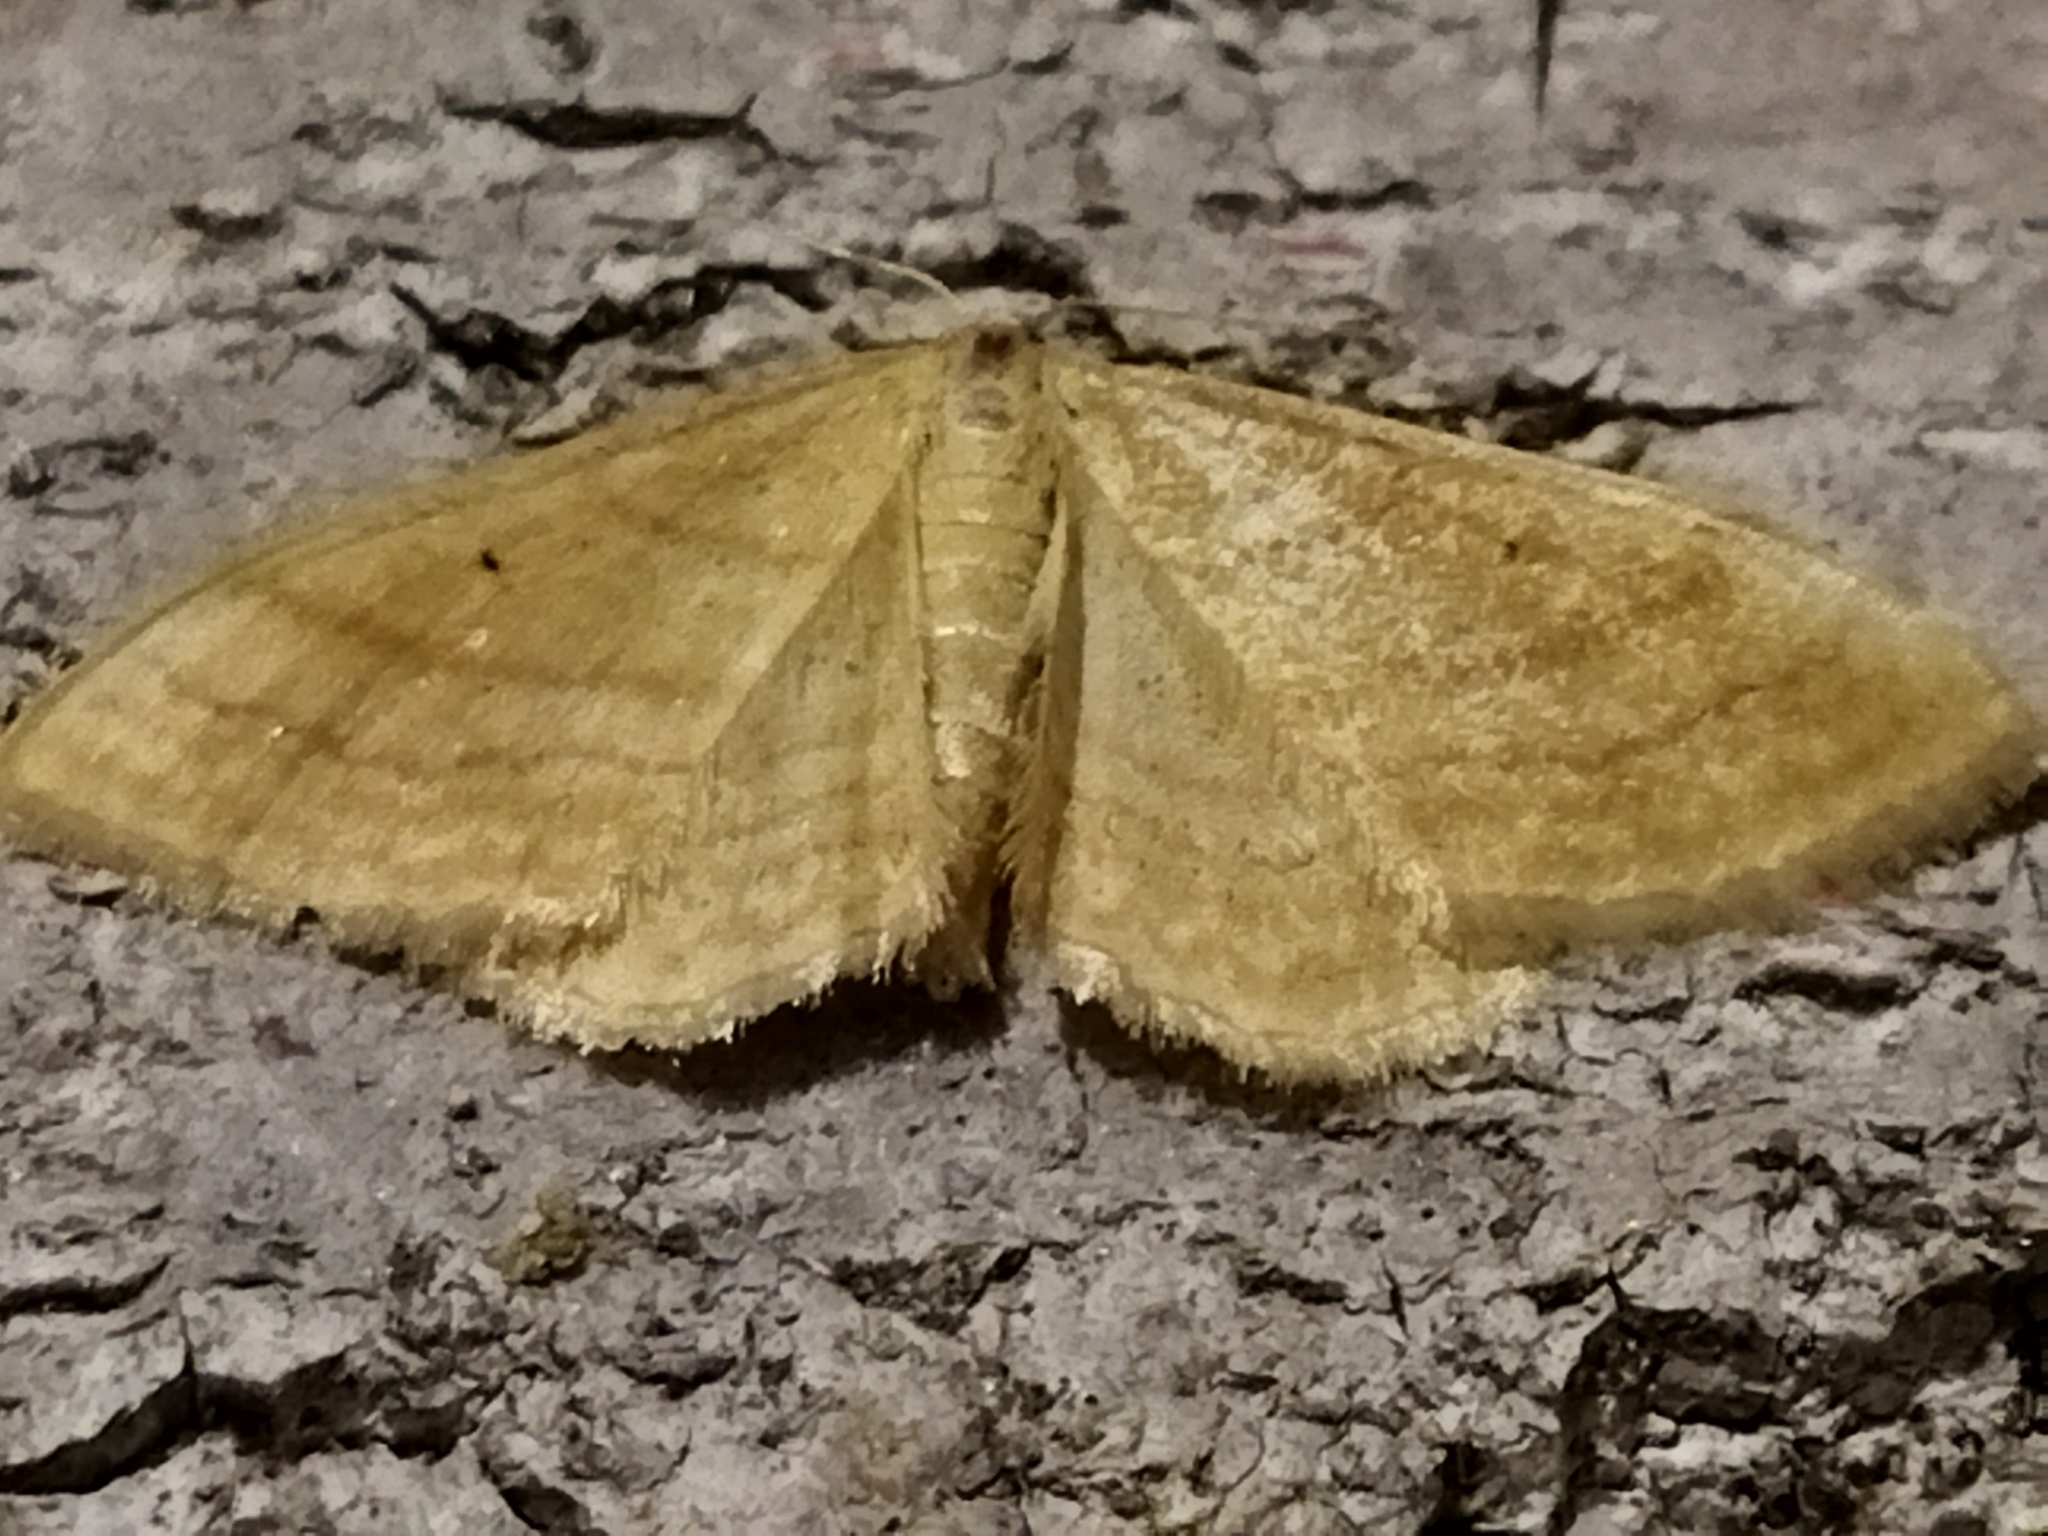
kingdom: Animalia
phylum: Arthropoda
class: Insecta
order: Lepidoptera
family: Geometridae
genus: Idaea
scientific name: Idaea rufaria
